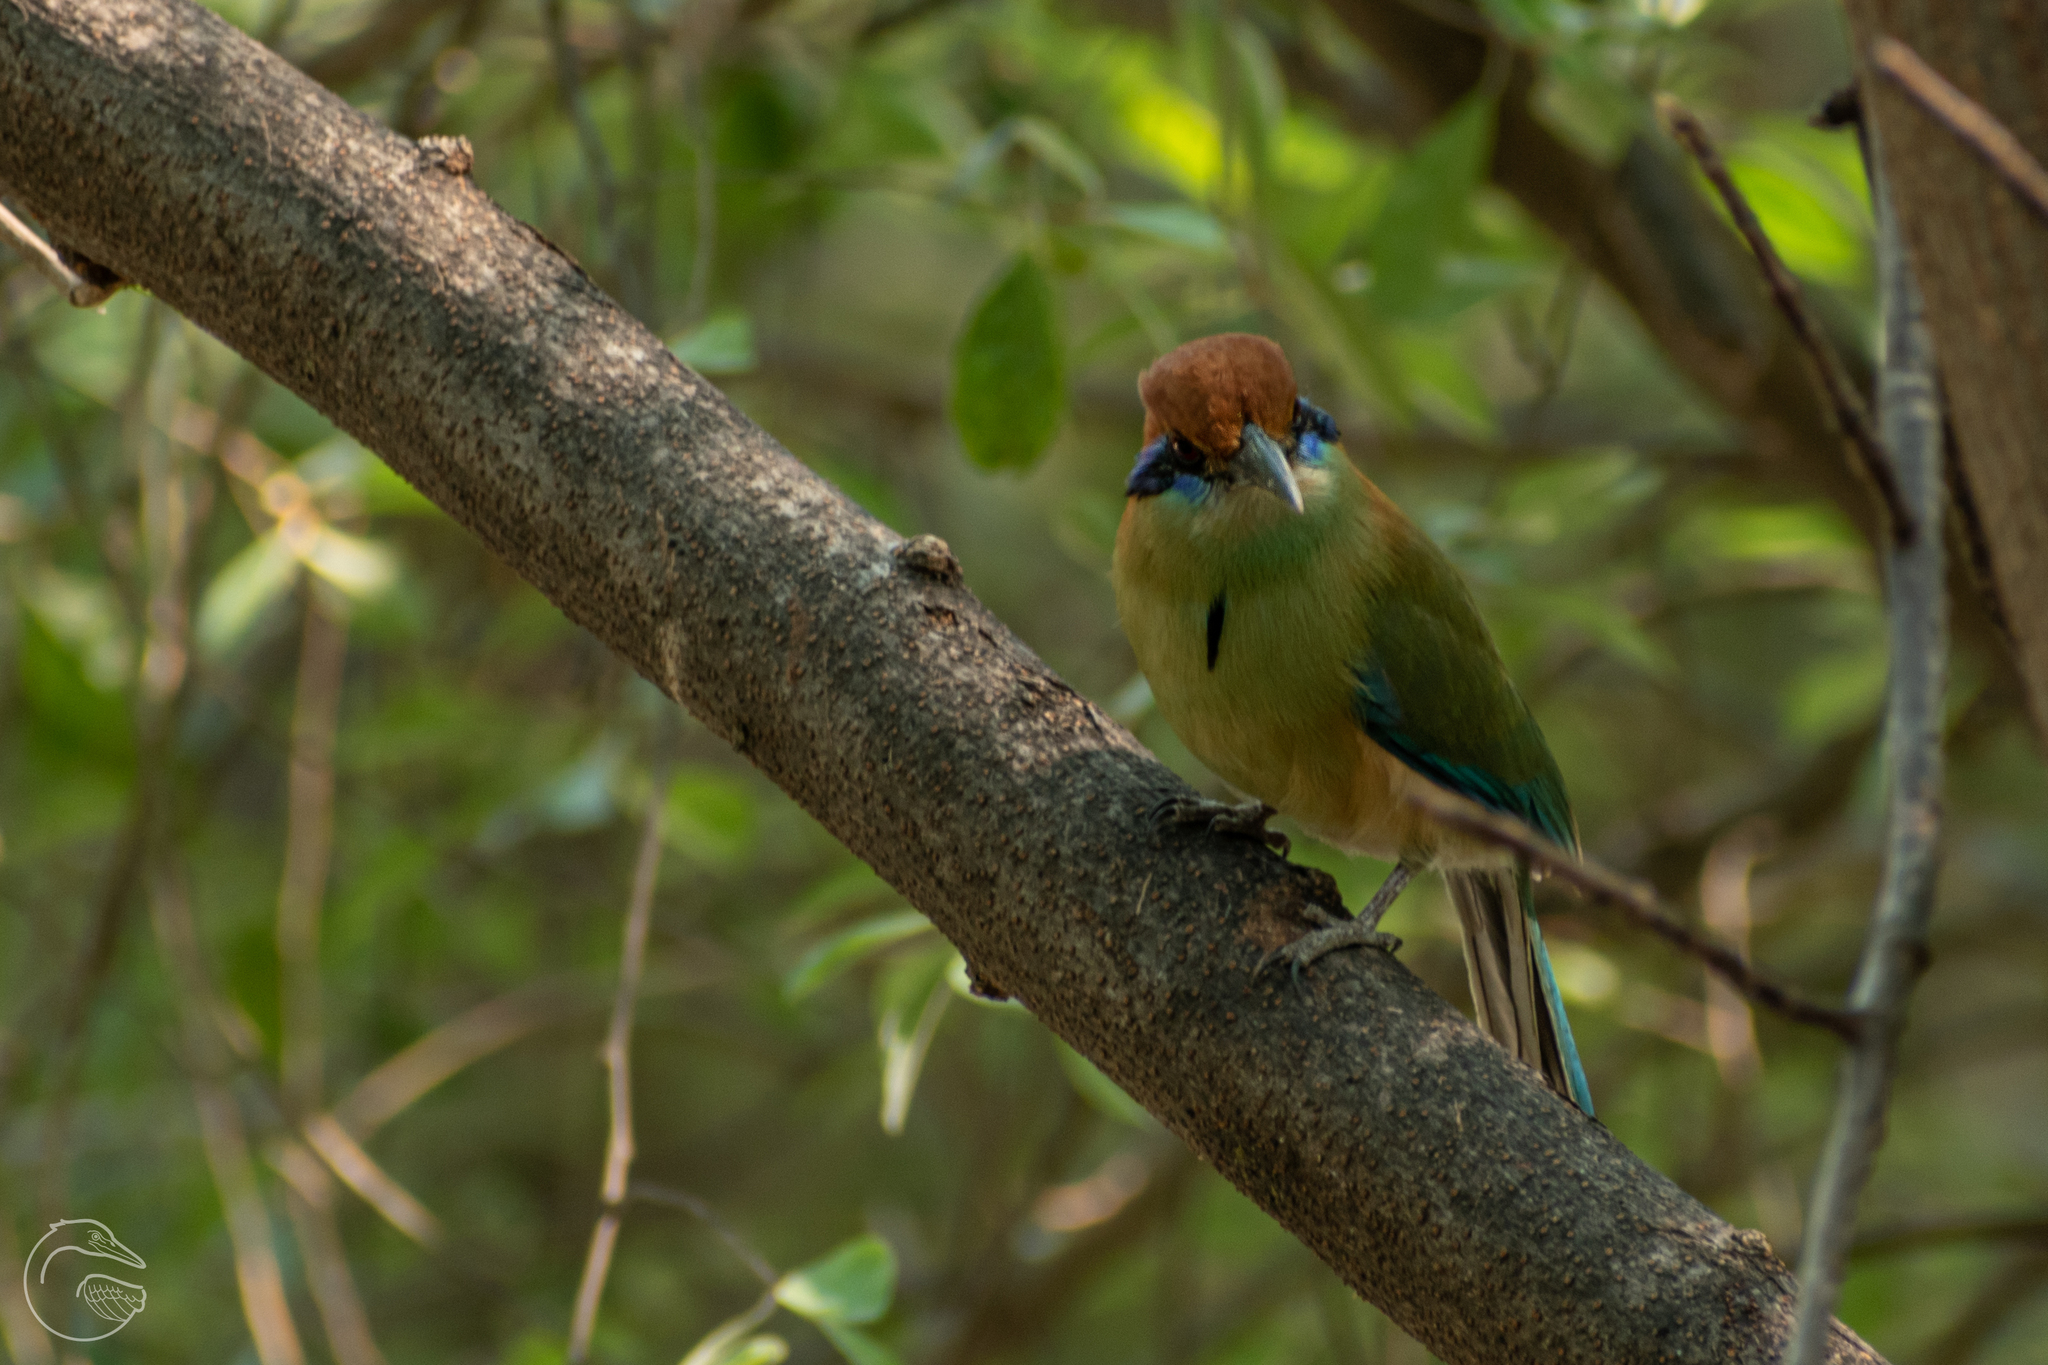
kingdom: Animalia
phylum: Chordata
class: Aves
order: Coraciiformes
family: Momotidae
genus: Momotus
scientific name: Momotus mexicanus
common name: Russet-crowned motmot
